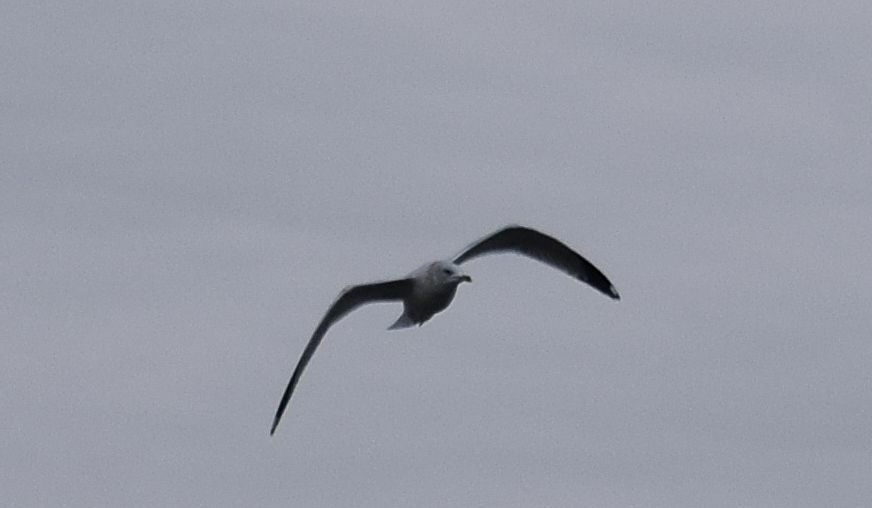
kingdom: Animalia
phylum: Chordata
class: Aves
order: Charadriiformes
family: Laridae
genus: Larus
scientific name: Larus delawarensis
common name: Ring-billed gull
